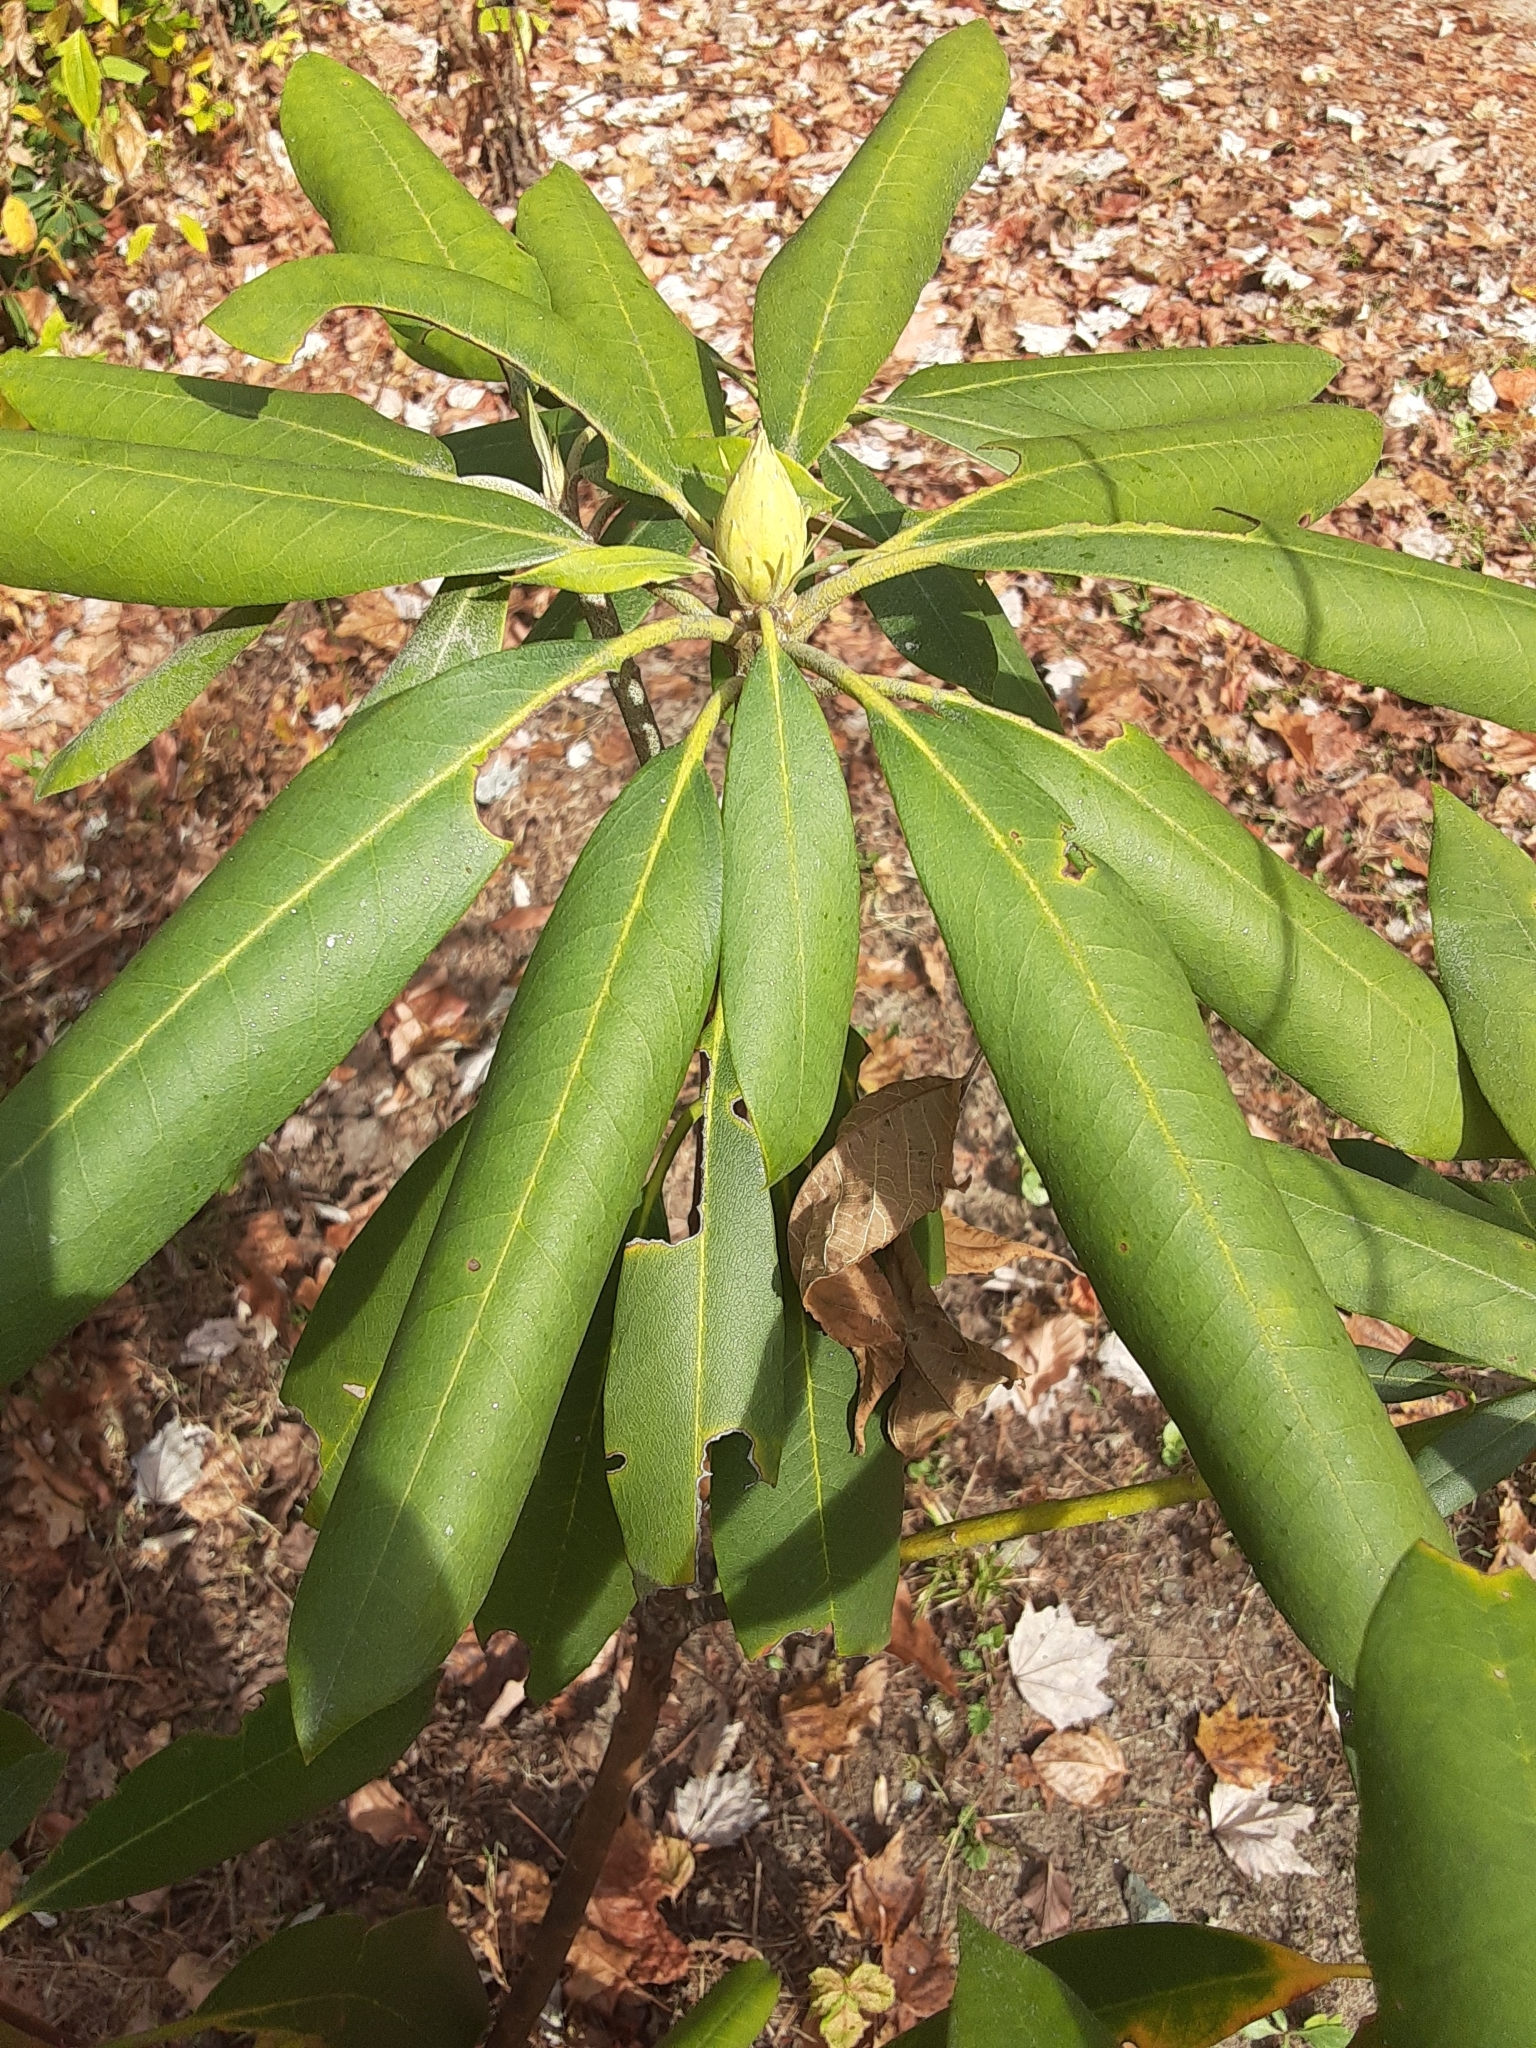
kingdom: Plantae
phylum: Tracheophyta
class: Magnoliopsida
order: Ericales
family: Ericaceae
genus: Rhododendron
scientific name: Rhododendron maximum
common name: Great rhododendron
